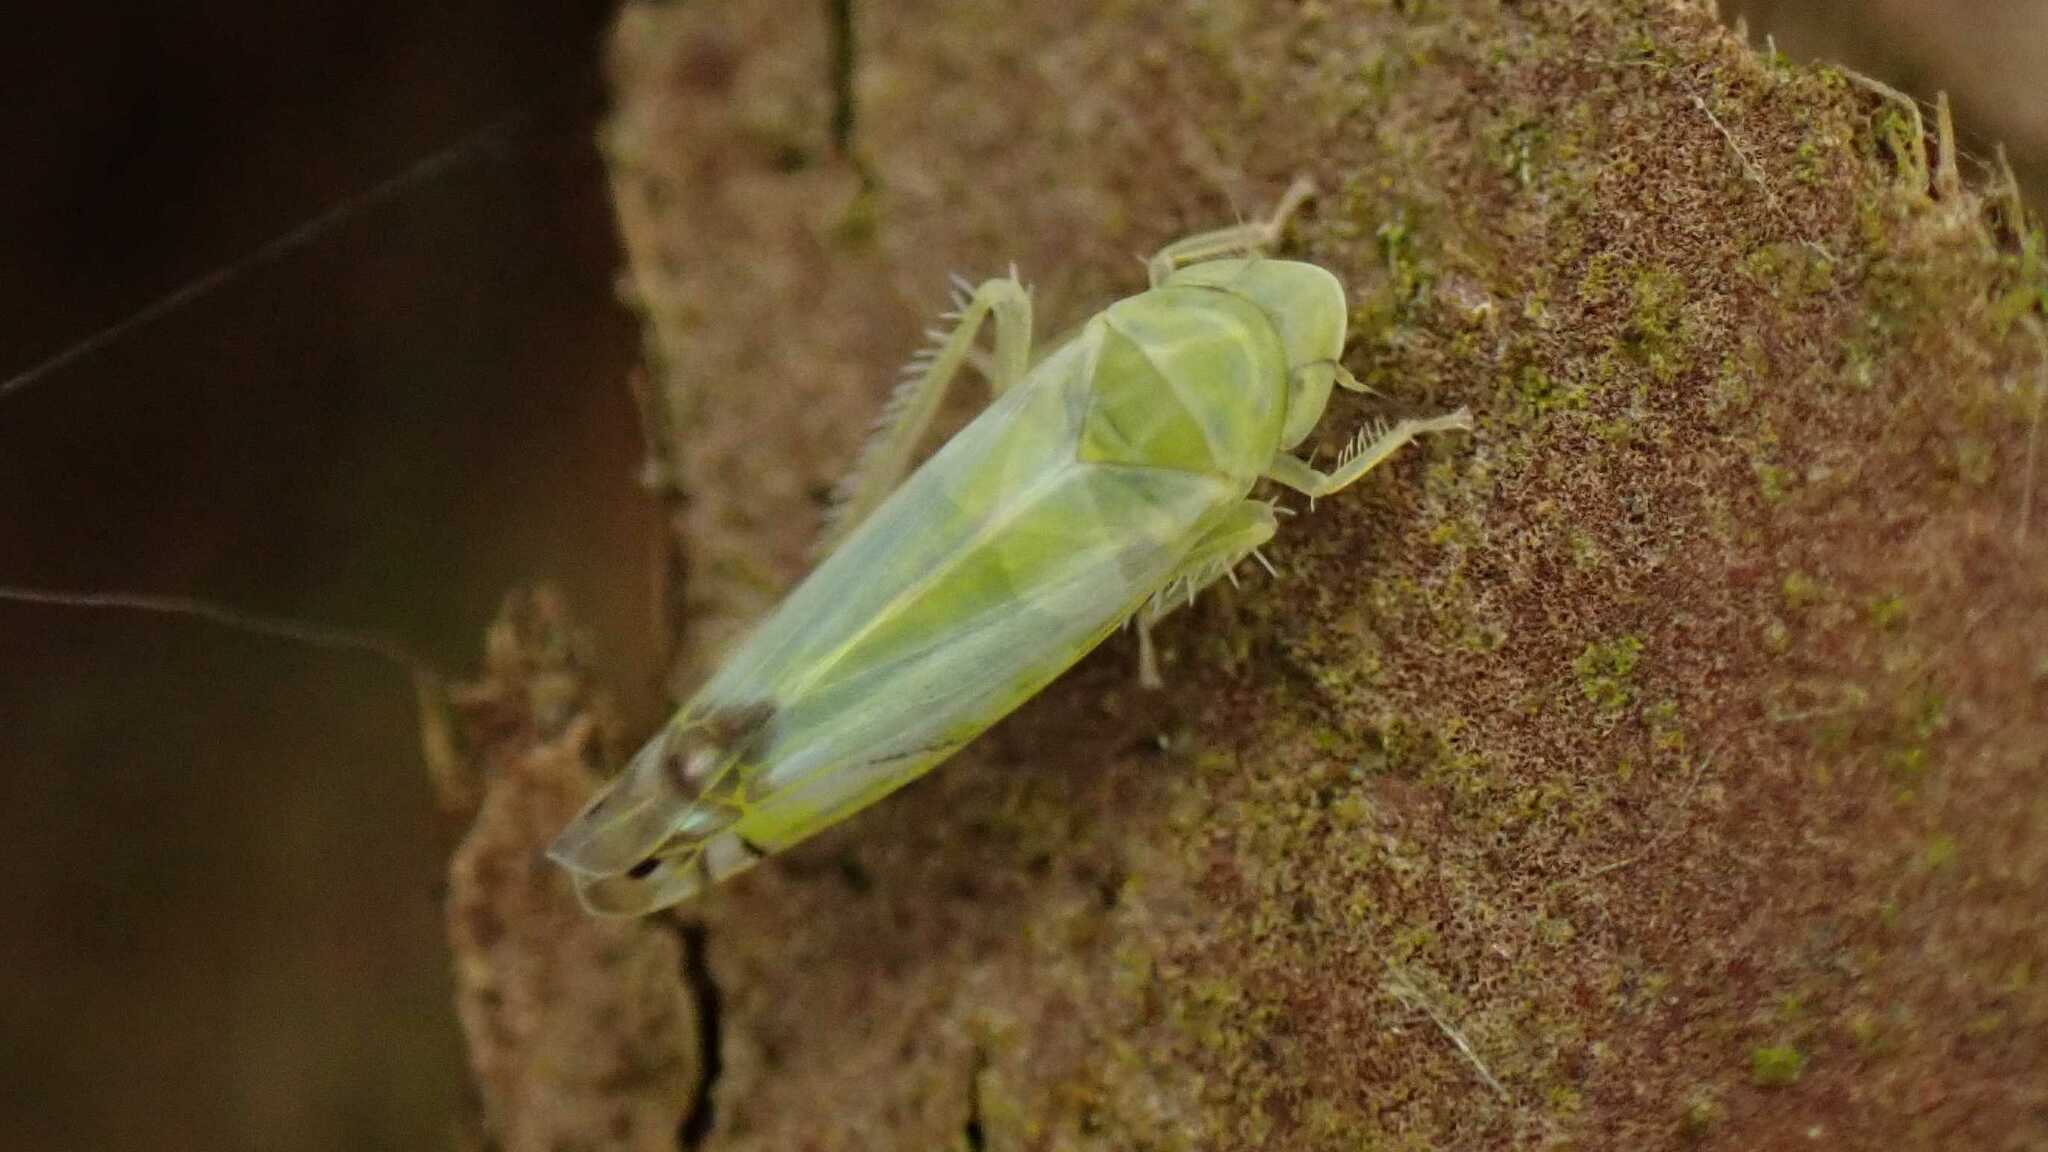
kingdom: Animalia
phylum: Arthropoda
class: Insecta
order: Hemiptera
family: Cicadellidae
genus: Zyginella
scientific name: Zyginella pulchra
